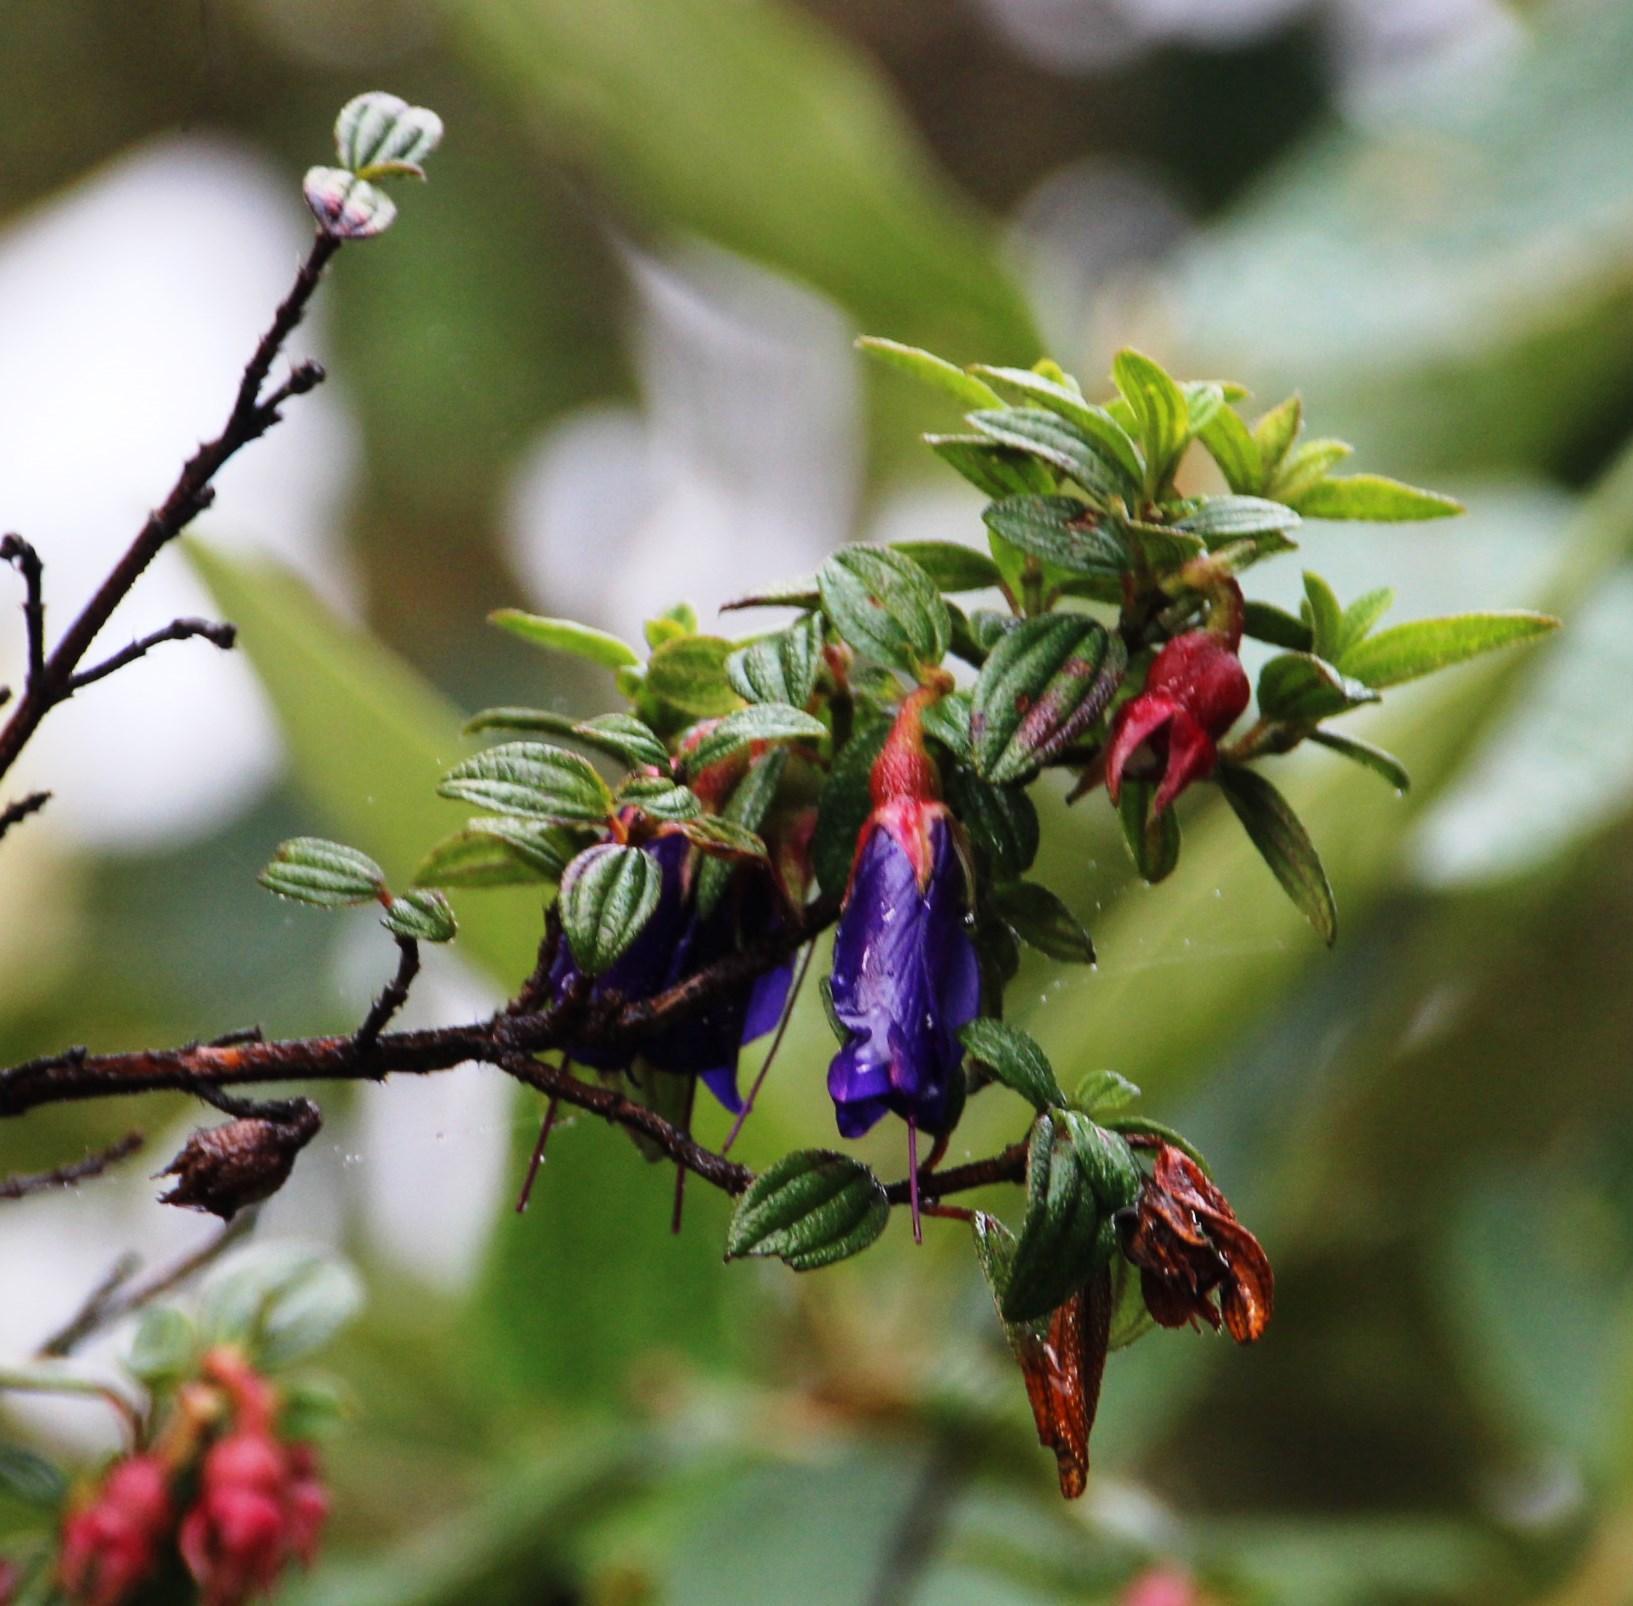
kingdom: Plantae
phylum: Tracheophyta
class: Magnoliopsida
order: Myrtales
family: Melastomataceae
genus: Brachyotum
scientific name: Brachyotum rostratum
